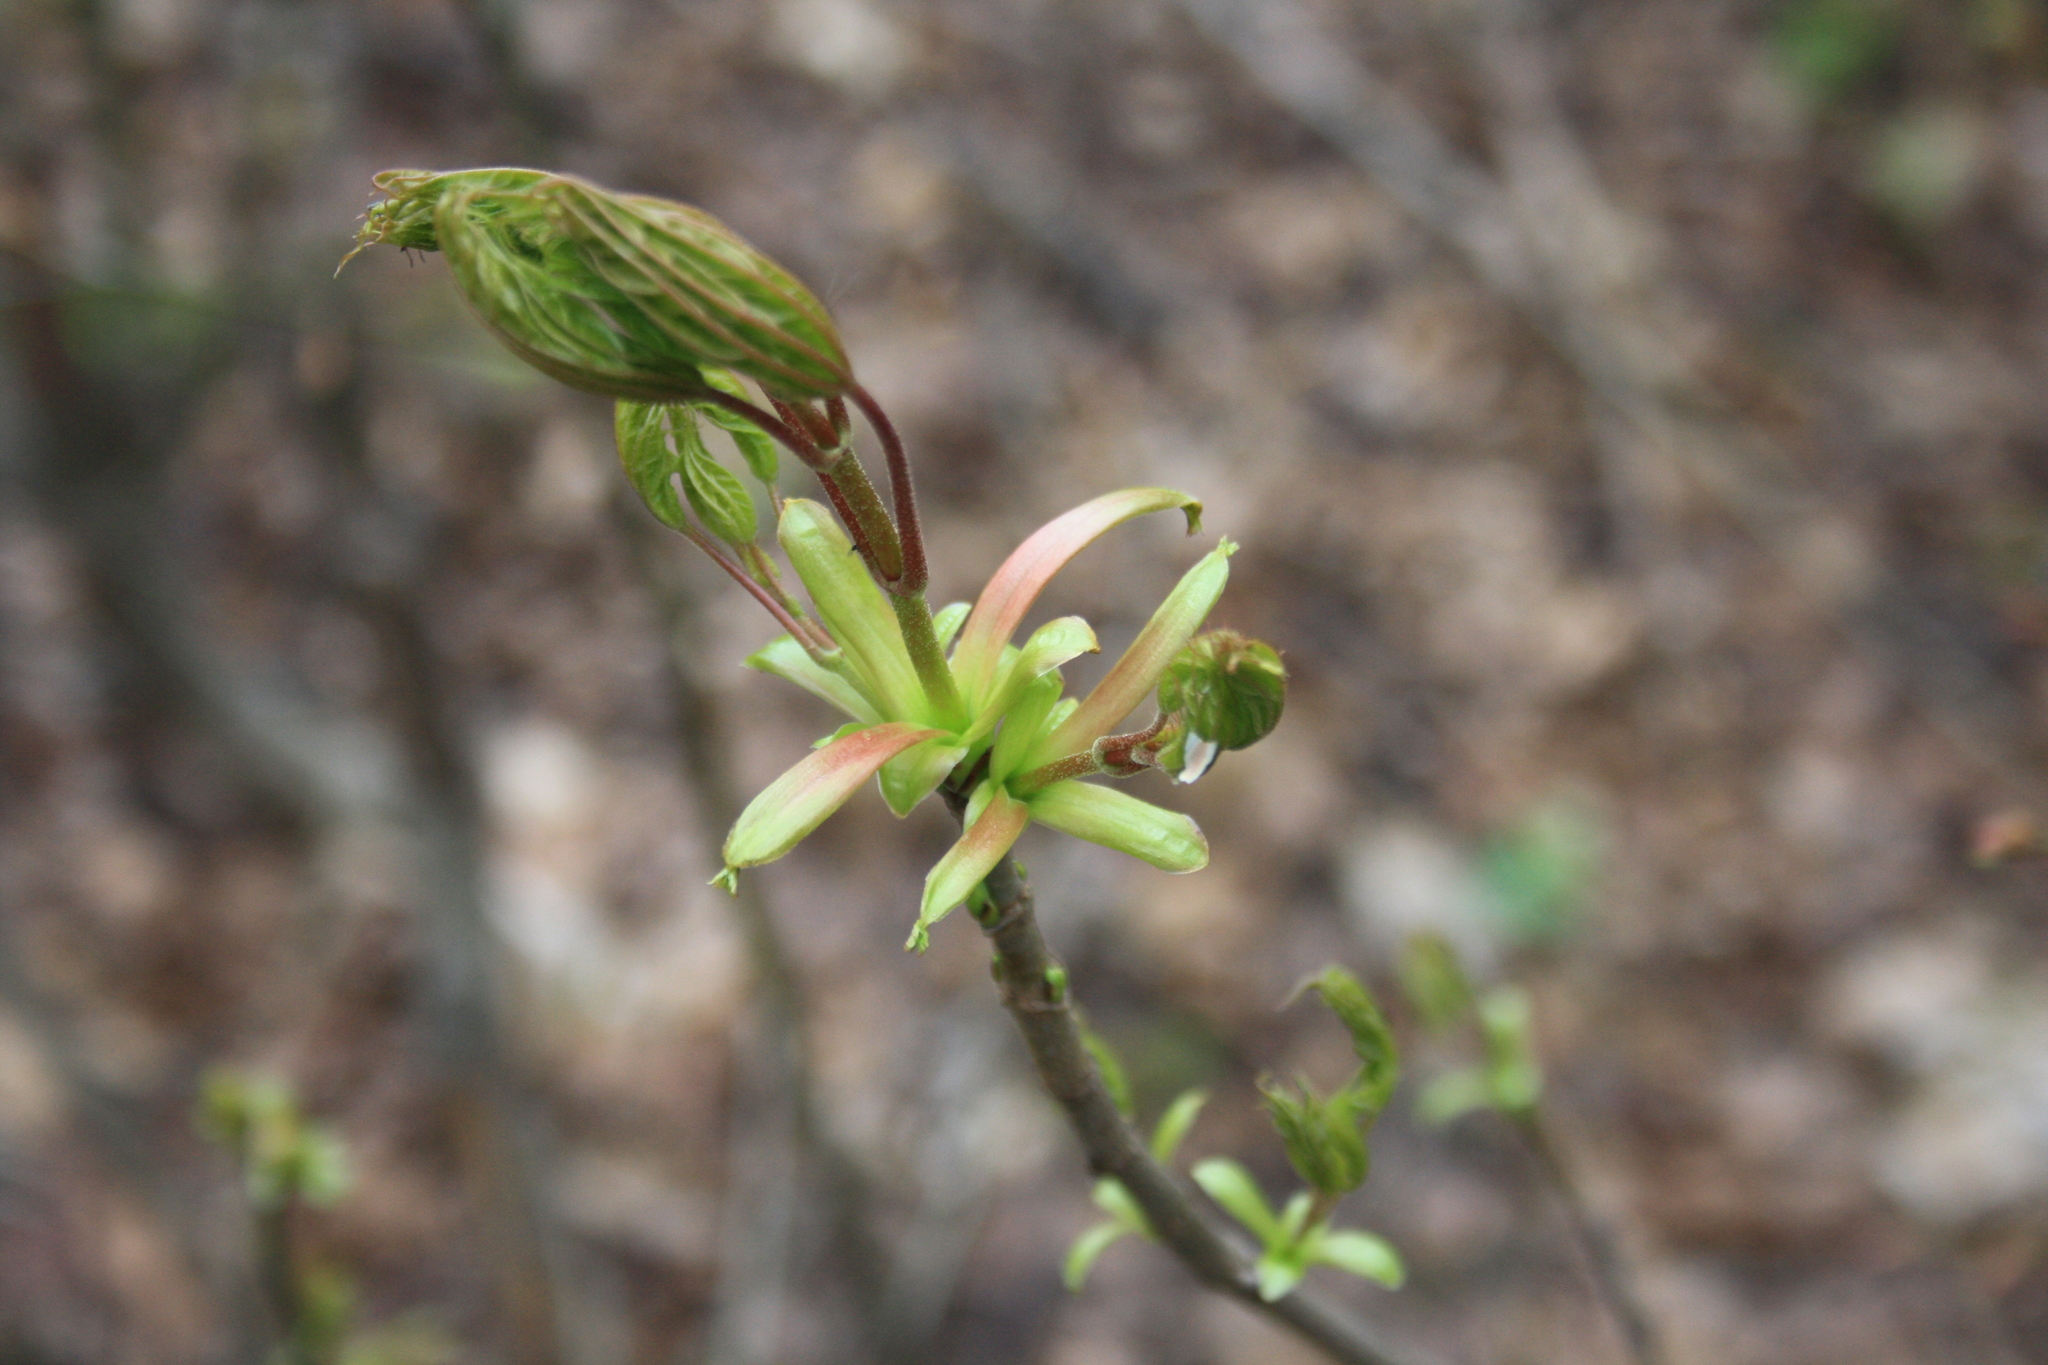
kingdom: Plantae
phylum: Tracheophyta
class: Magnoliopsida
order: Sapindales
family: Sapindaceae
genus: Acer
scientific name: Acer platanoides
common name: Norway maple
